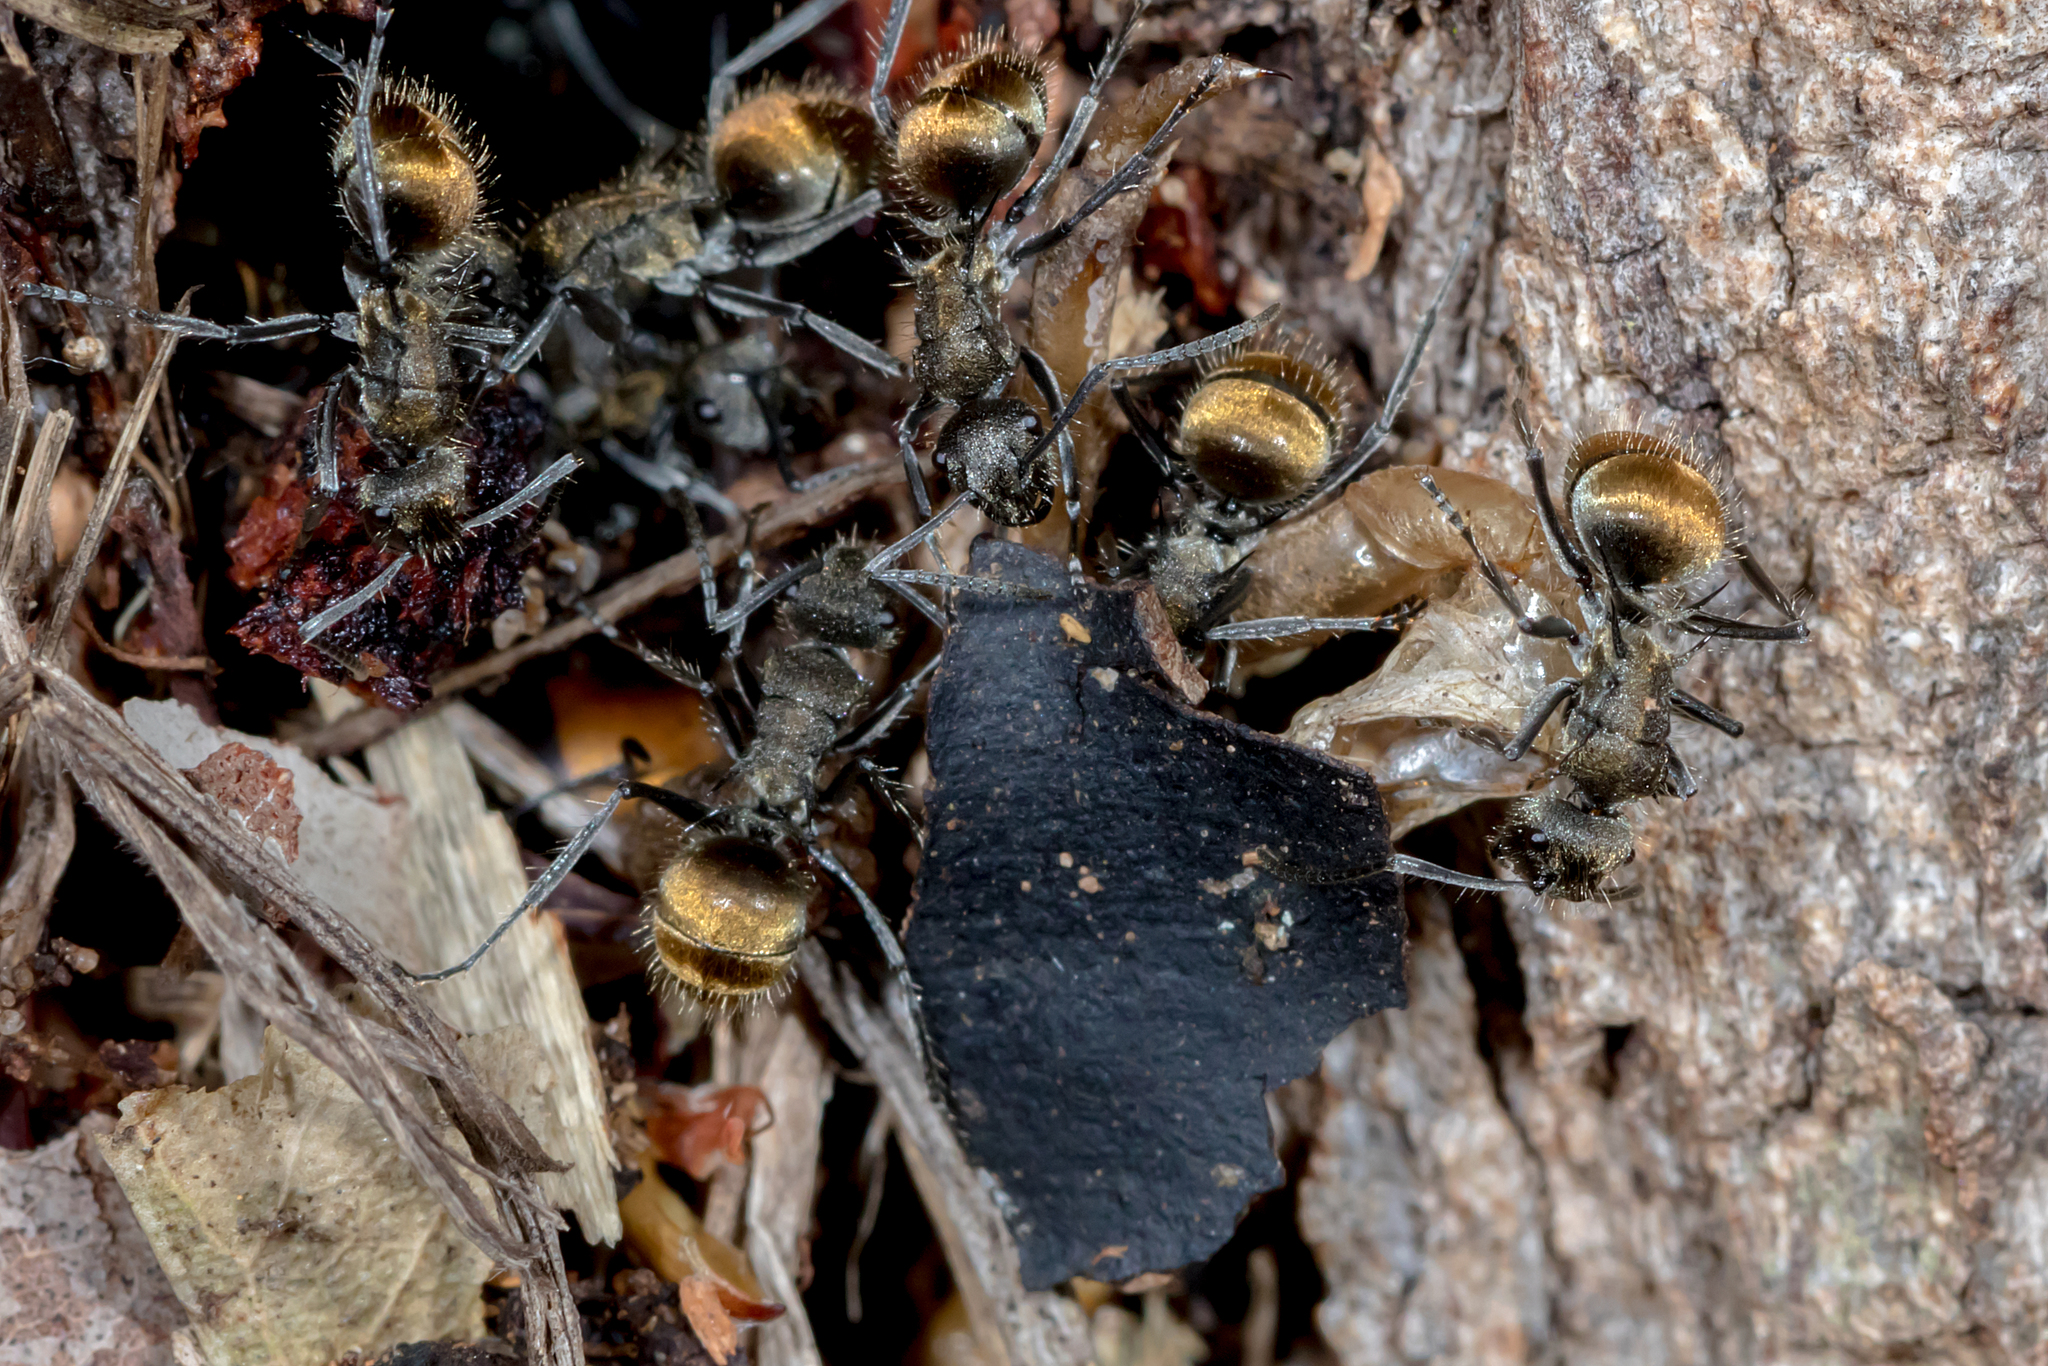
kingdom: Animalia
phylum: Arthropoda
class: Insecta
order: Hymenoptera
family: Formicidae
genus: Polyrhachis
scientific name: Polyrhachis aurea
